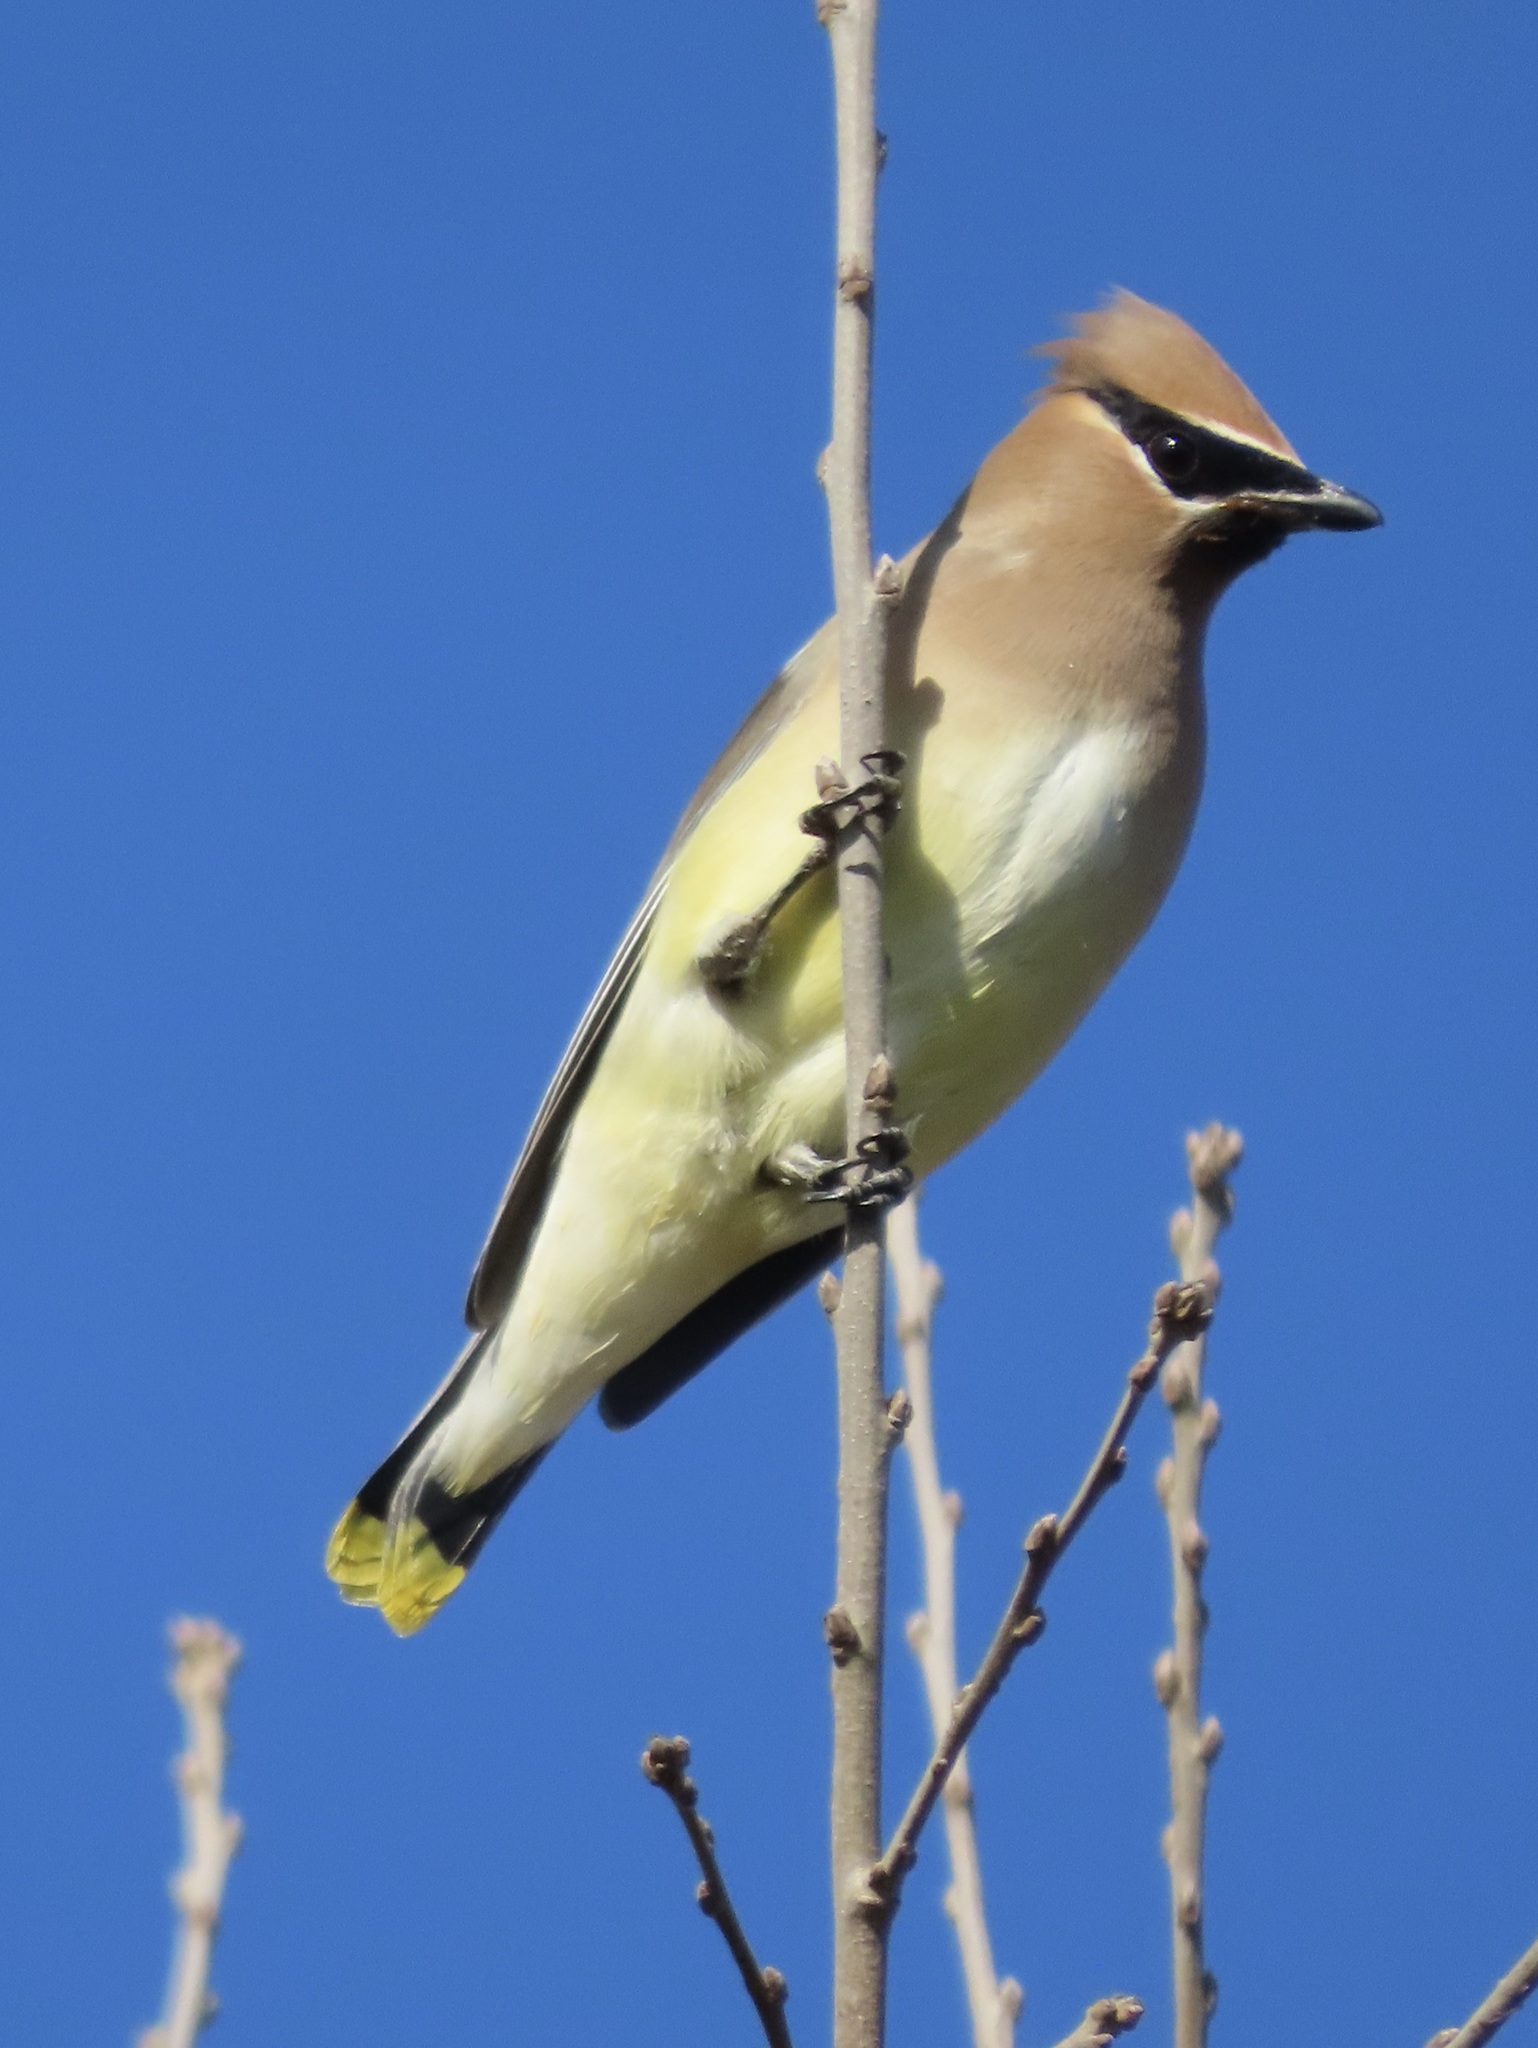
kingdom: Animalia
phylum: Chordata
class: Aves
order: Passeriformes
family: Bombycillidae
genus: Bombycilla
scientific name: Bombycilla cedrorum
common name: Cedar waxwing
